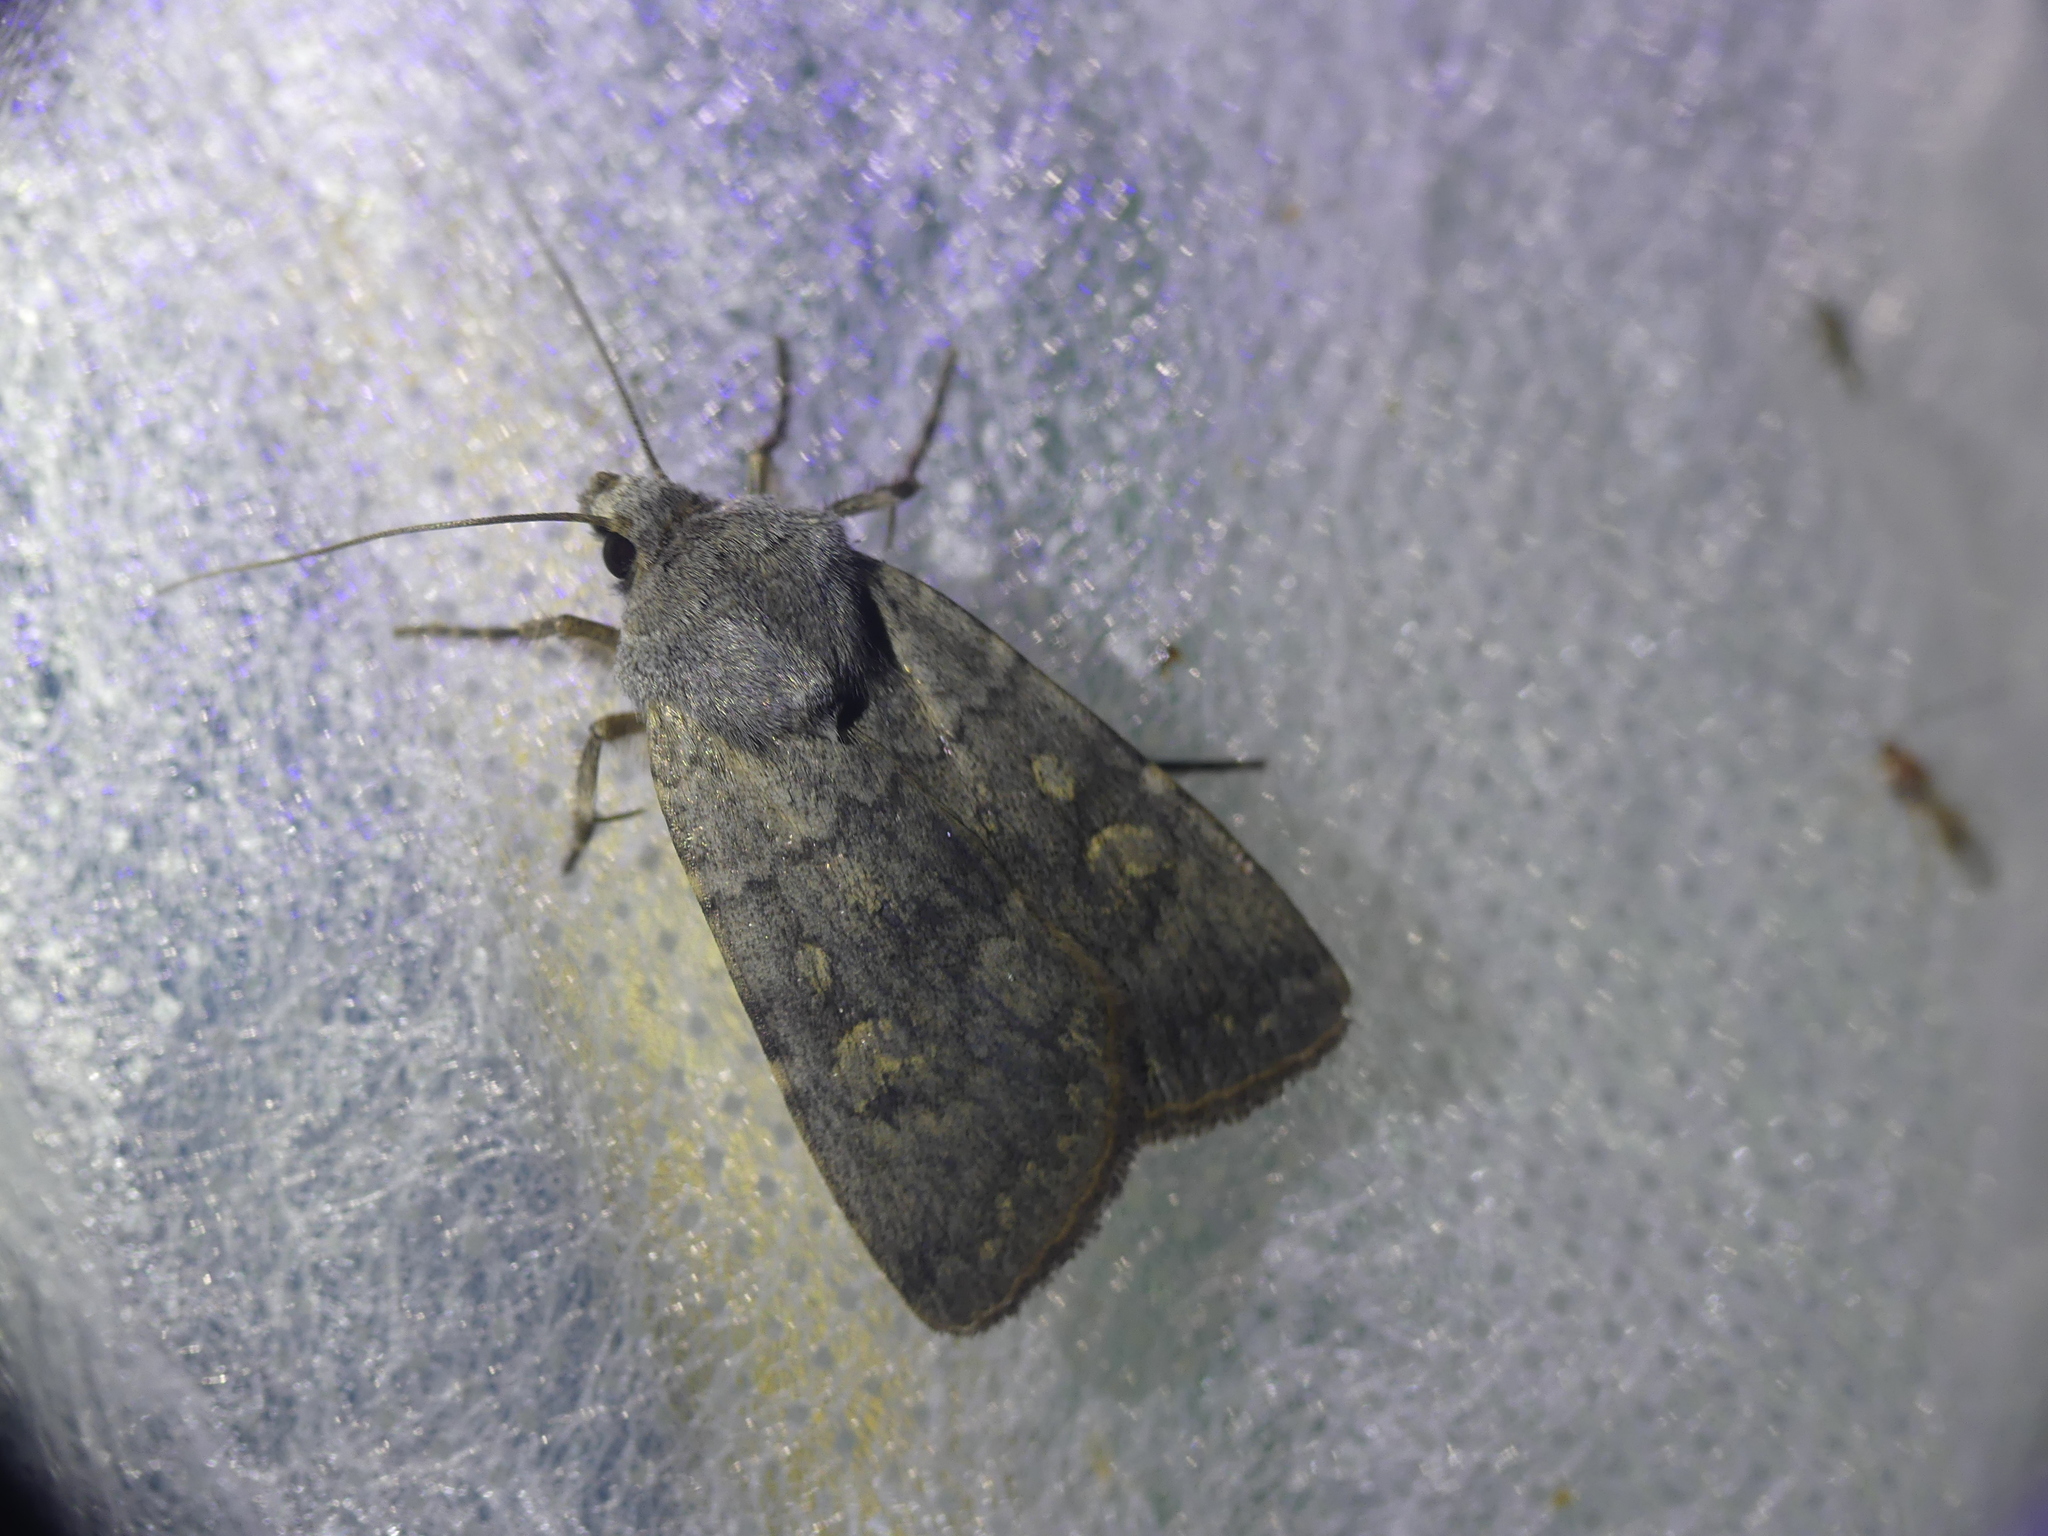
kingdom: Animalia
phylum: Arthropoda
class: Insecta
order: Lepidoptera
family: Noctuidae
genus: Euxoa
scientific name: Euxoa decora
